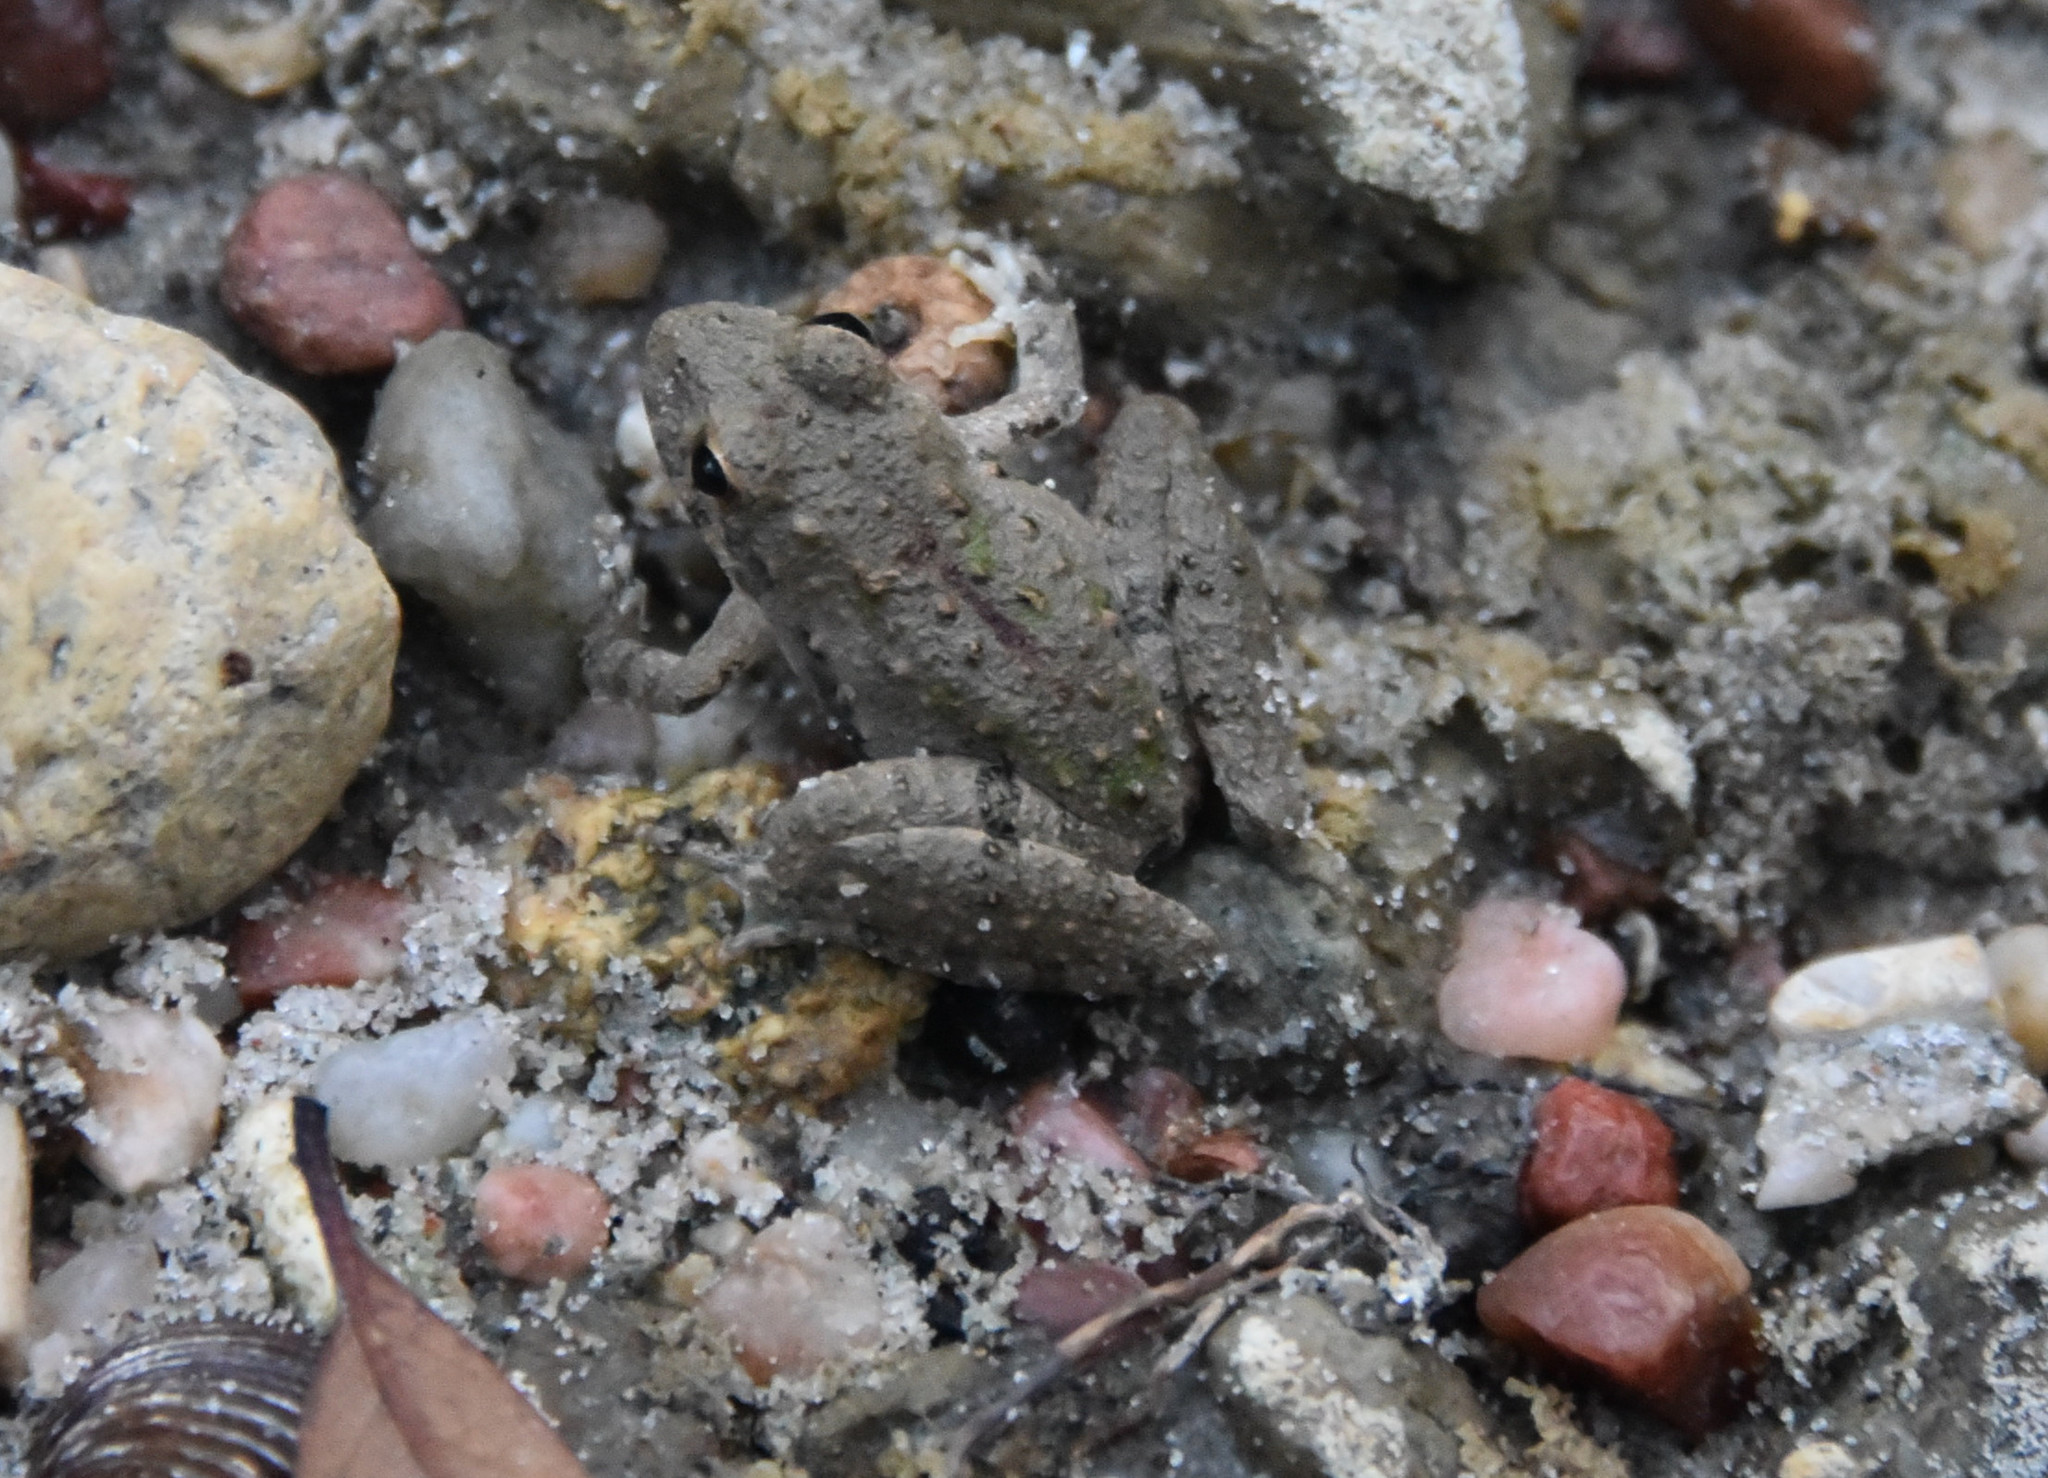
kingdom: Animalia
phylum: Chordata
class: Amphibia
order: Anura
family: Hylidae
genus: Acris
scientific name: Acris blanchardi
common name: Blanchard's cricket frog
